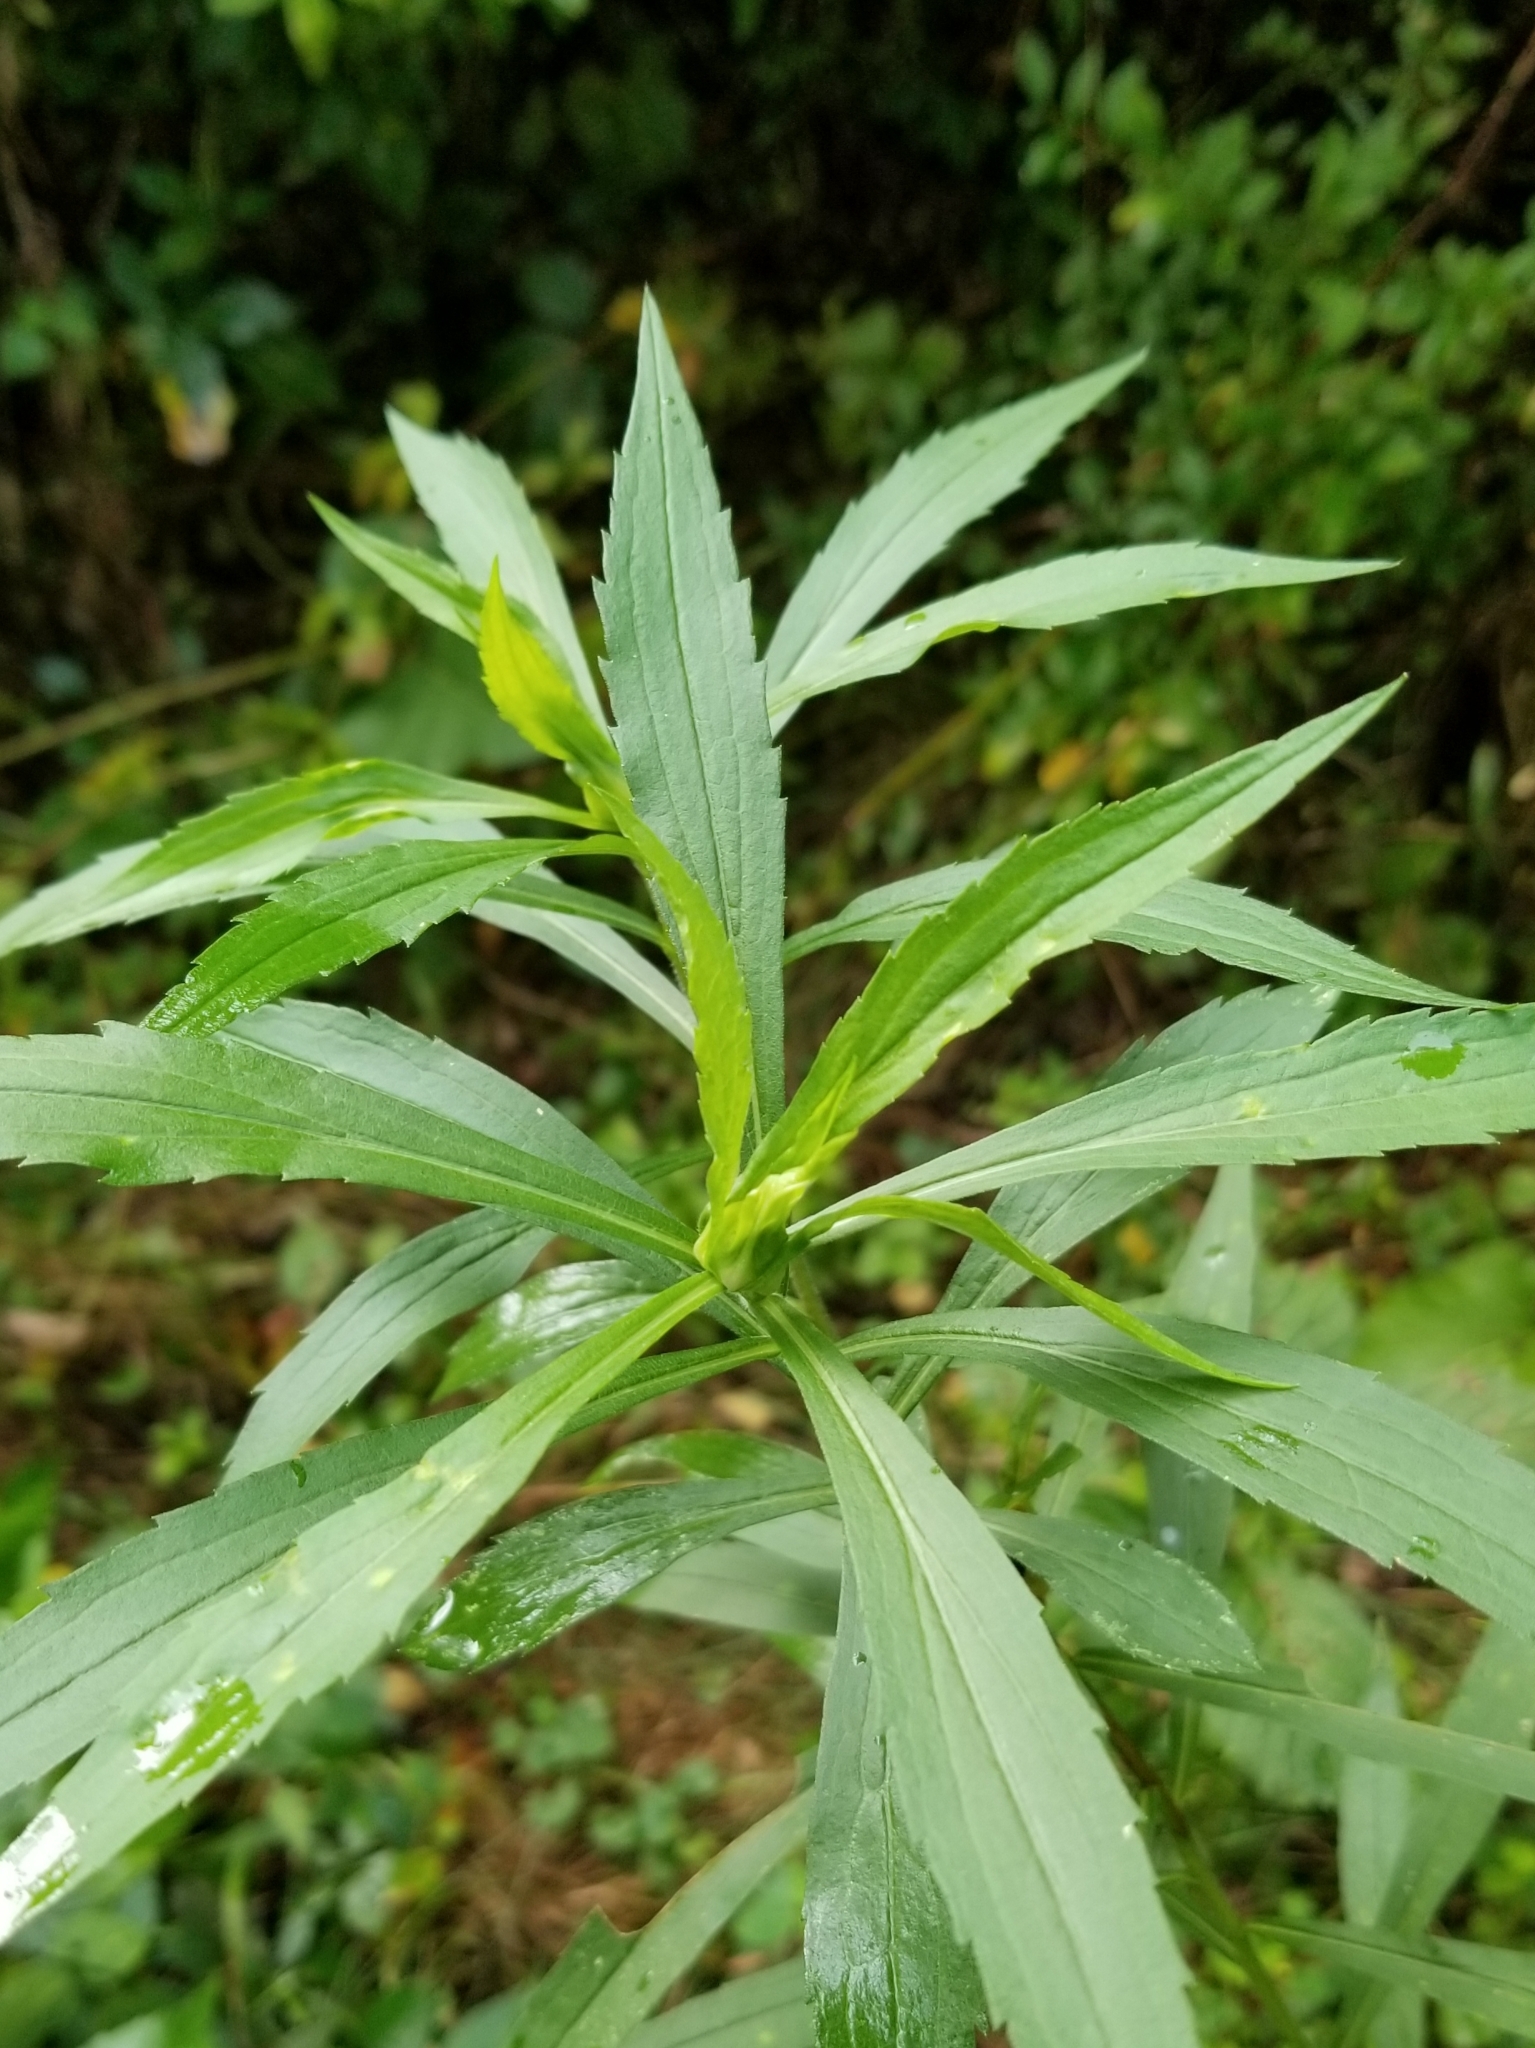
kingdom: Animalia
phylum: Arthropoda
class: Insecta
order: Diptera
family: Cecidomyiidae
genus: Dasineura
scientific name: Dasineura folliculi
